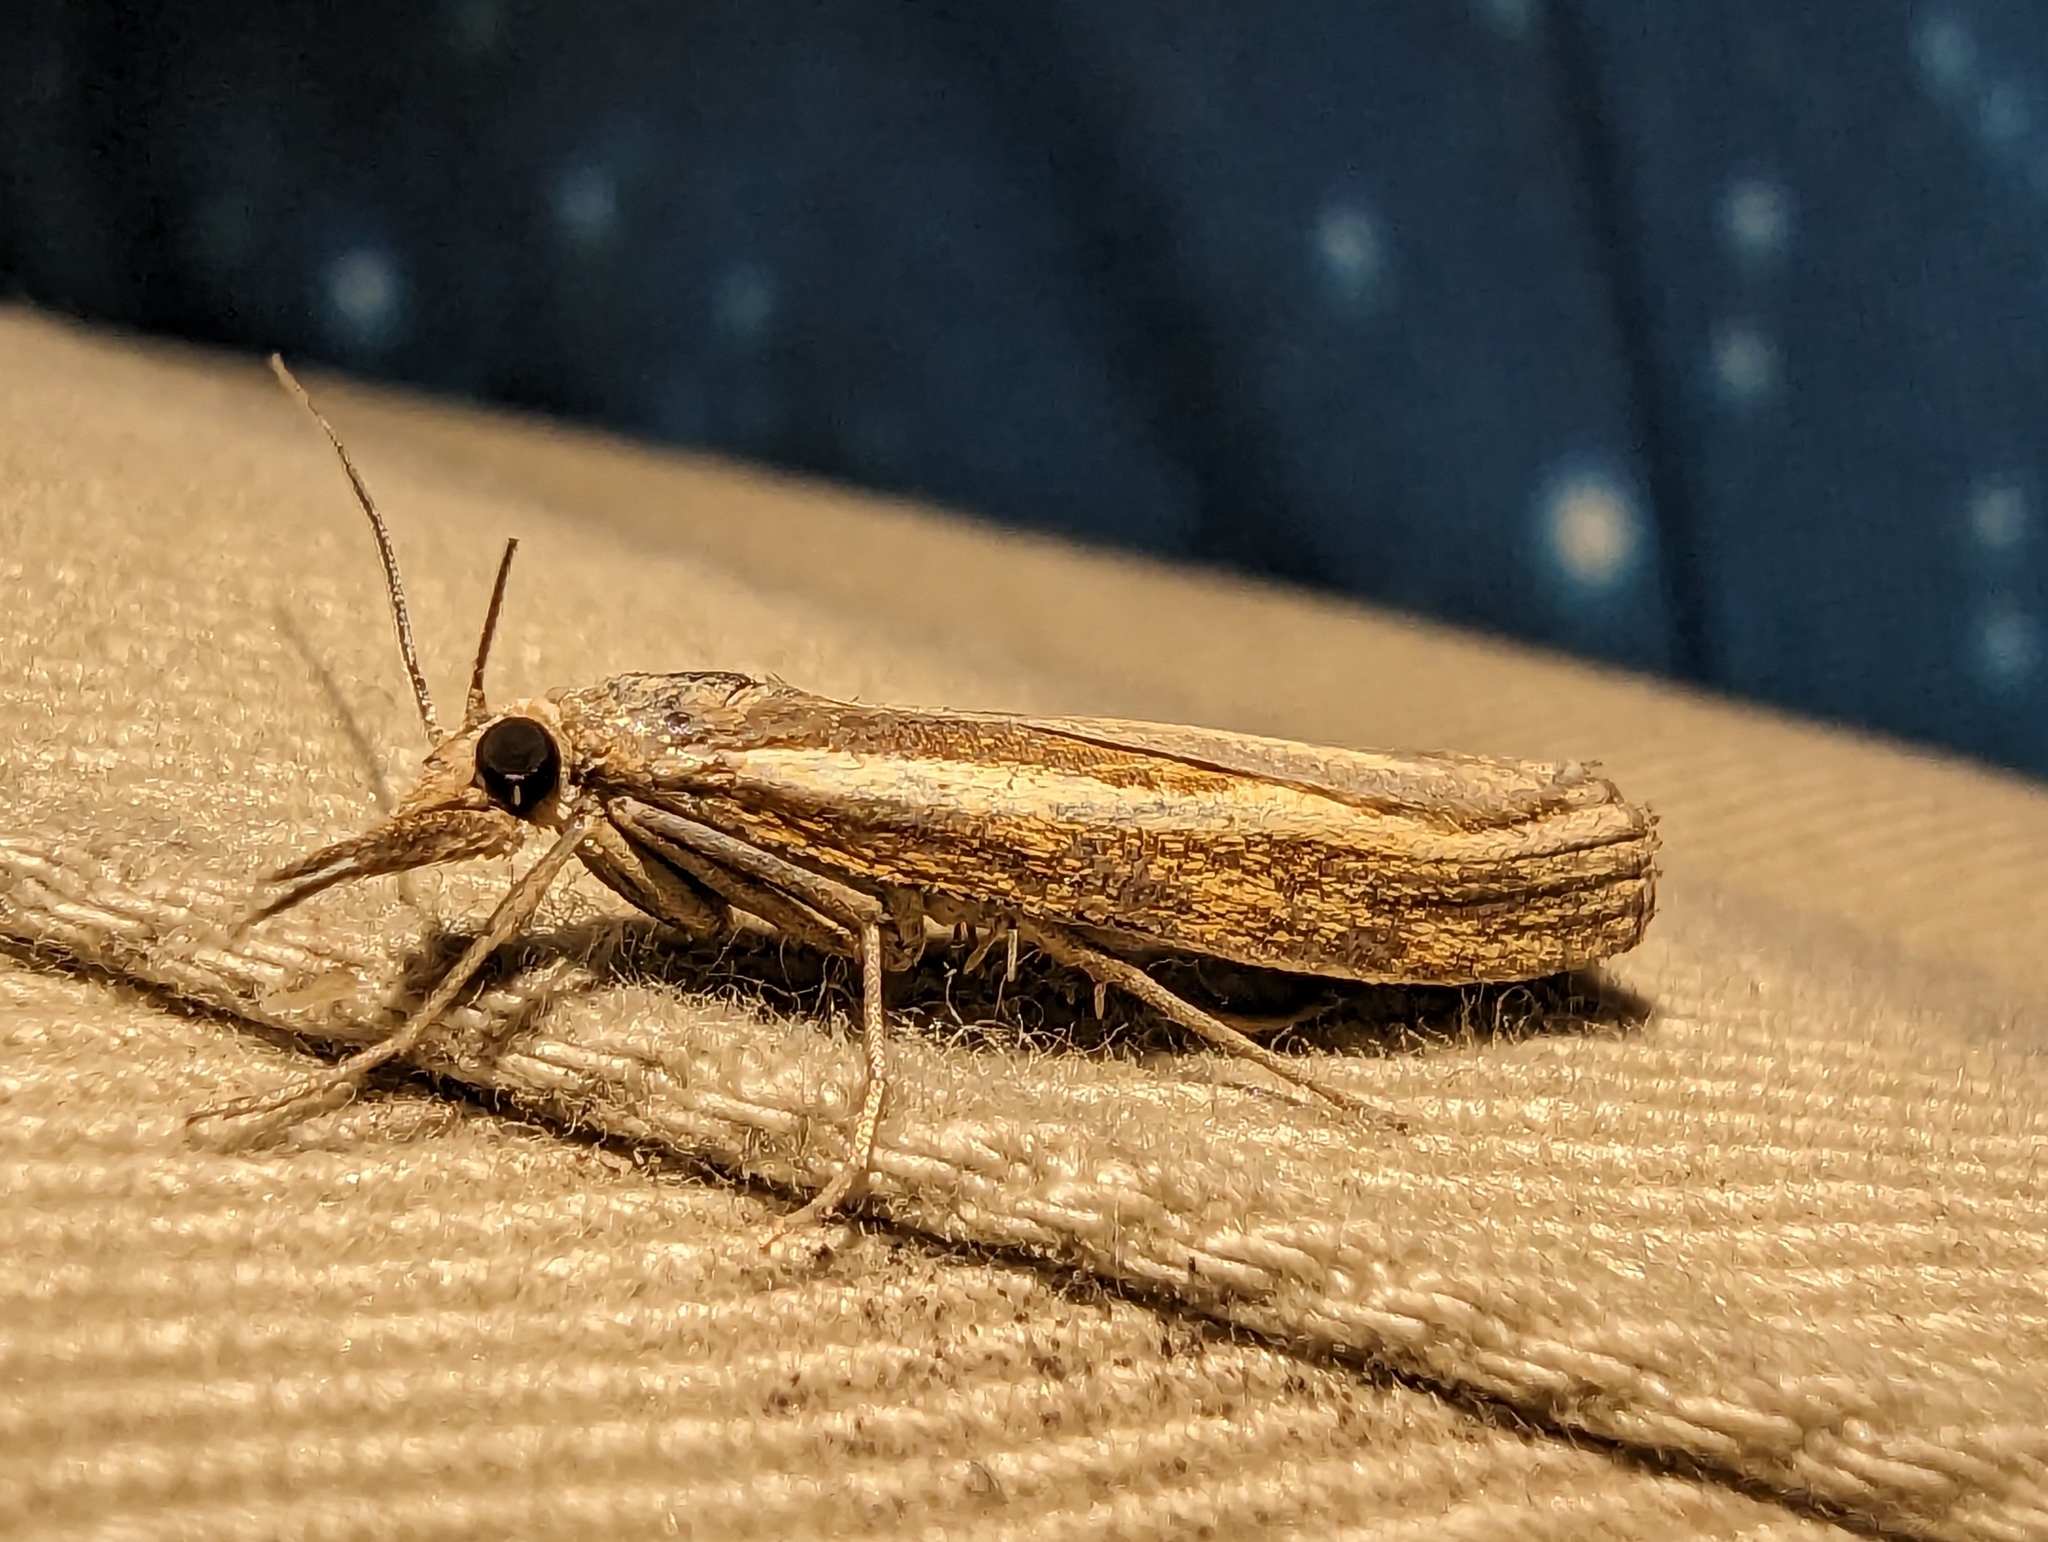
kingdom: Animalia
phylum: Arthropoda
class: Insecta
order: Lepidoptera
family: Crambidae
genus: Agriphila
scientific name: Agriphila tristellus
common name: Common grass-veneer
